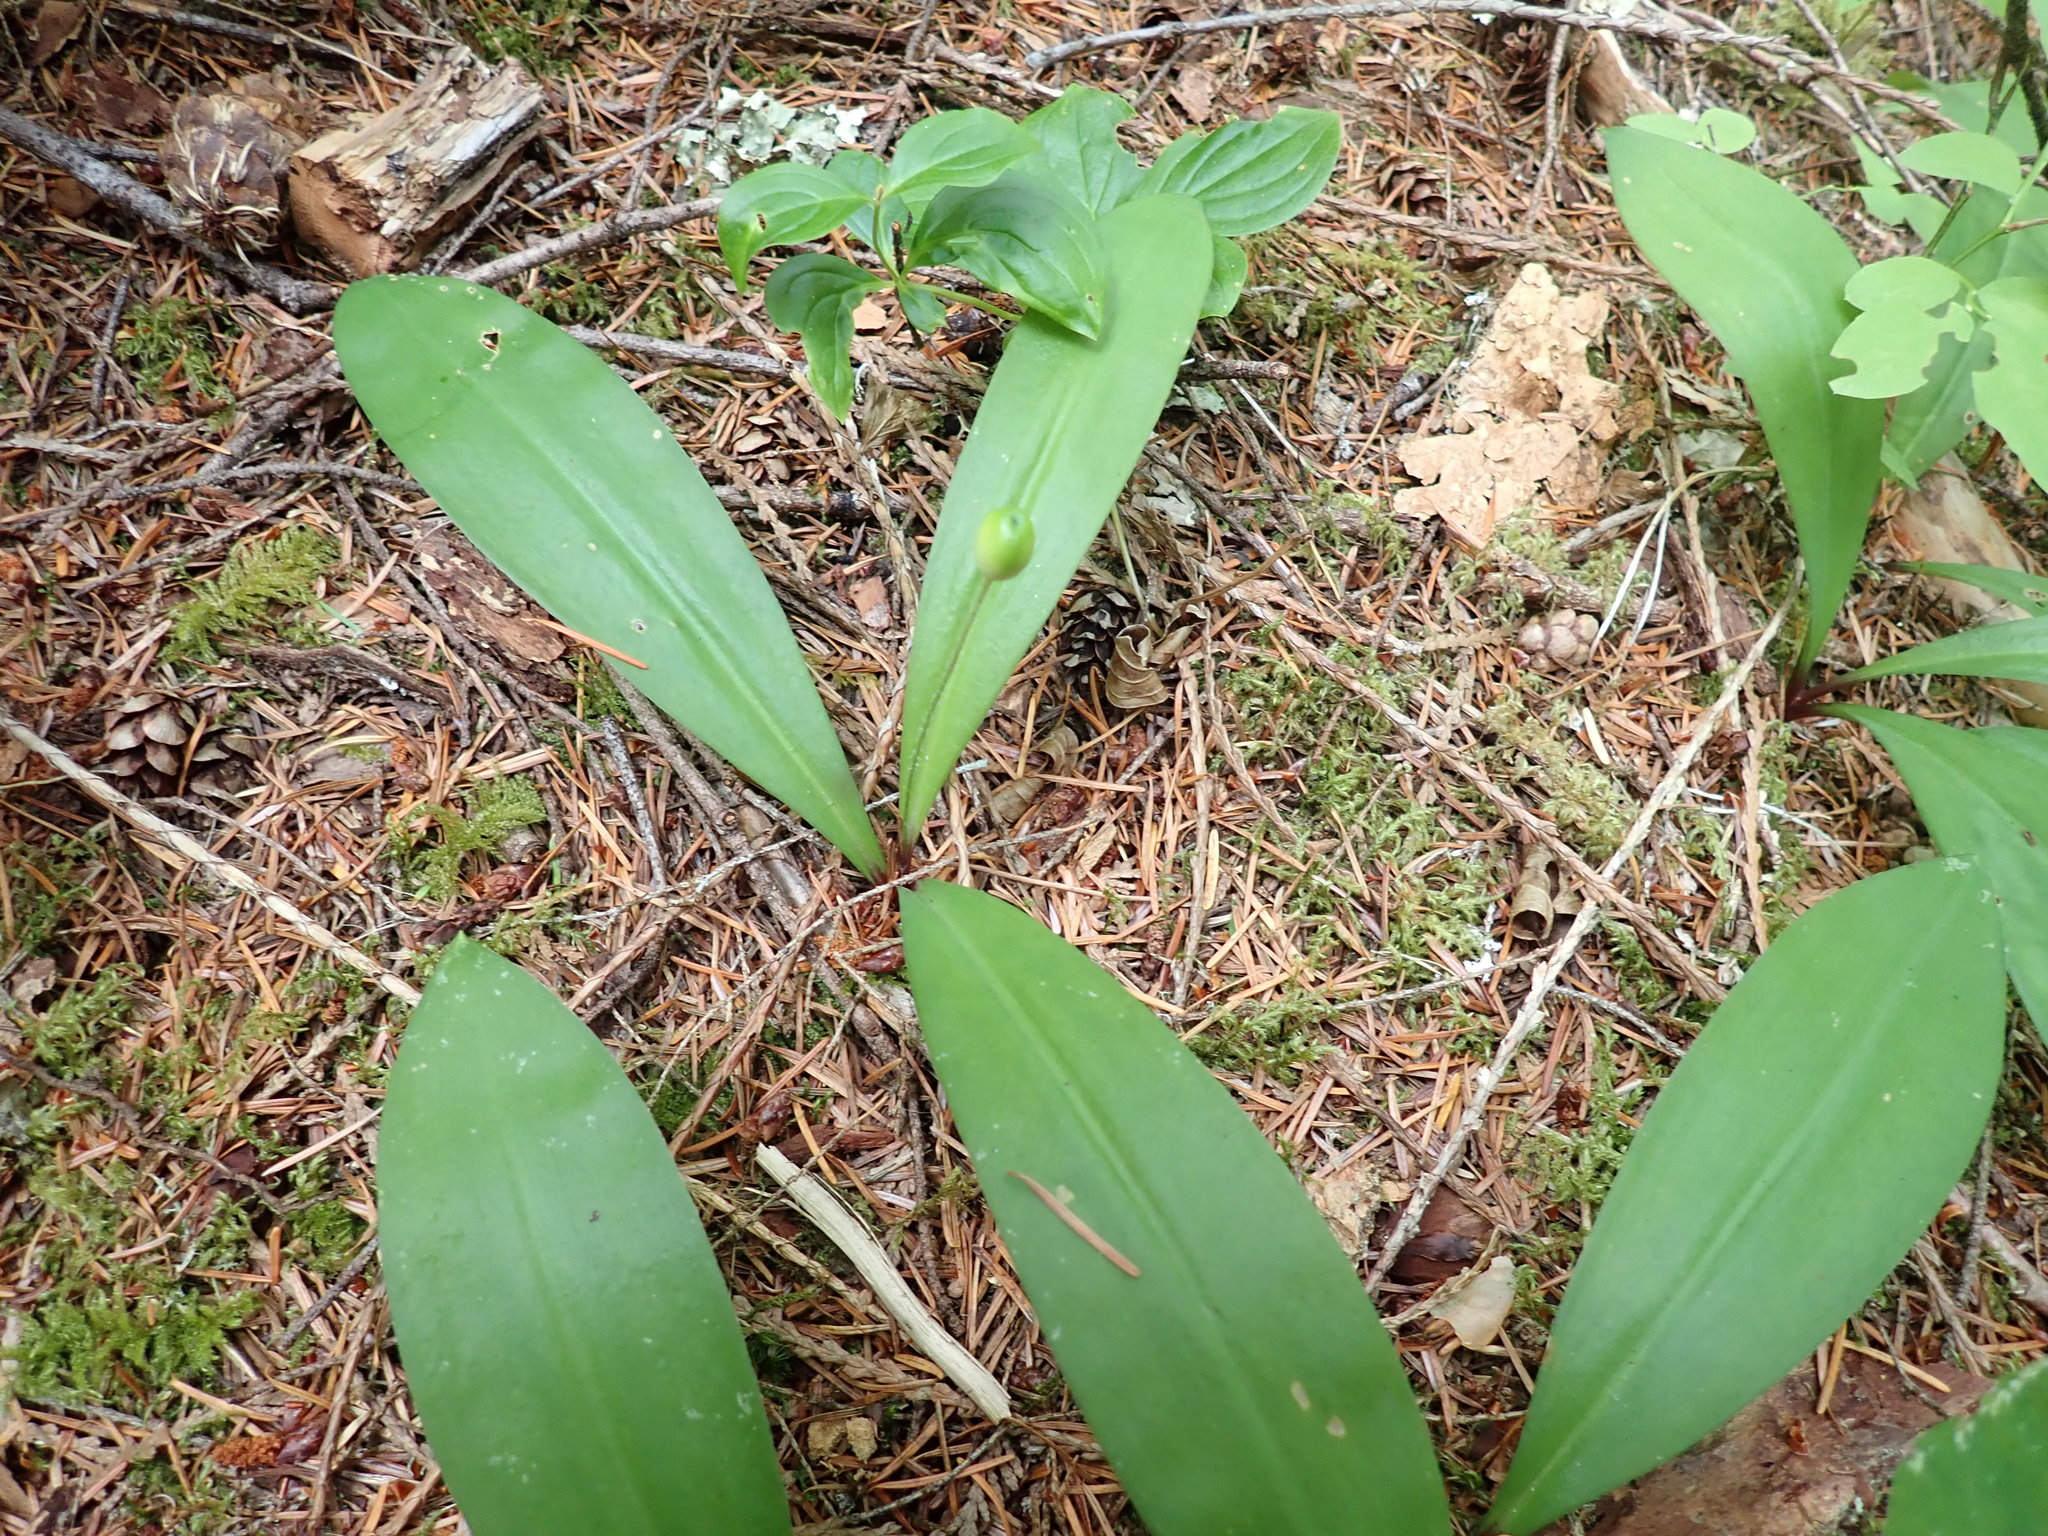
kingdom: Plantae
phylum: Tracheophyta
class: Liliopsida
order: Liliales
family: Liliaceae
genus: Clintonia
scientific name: Clintonia uniflora
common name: Queen's cup
